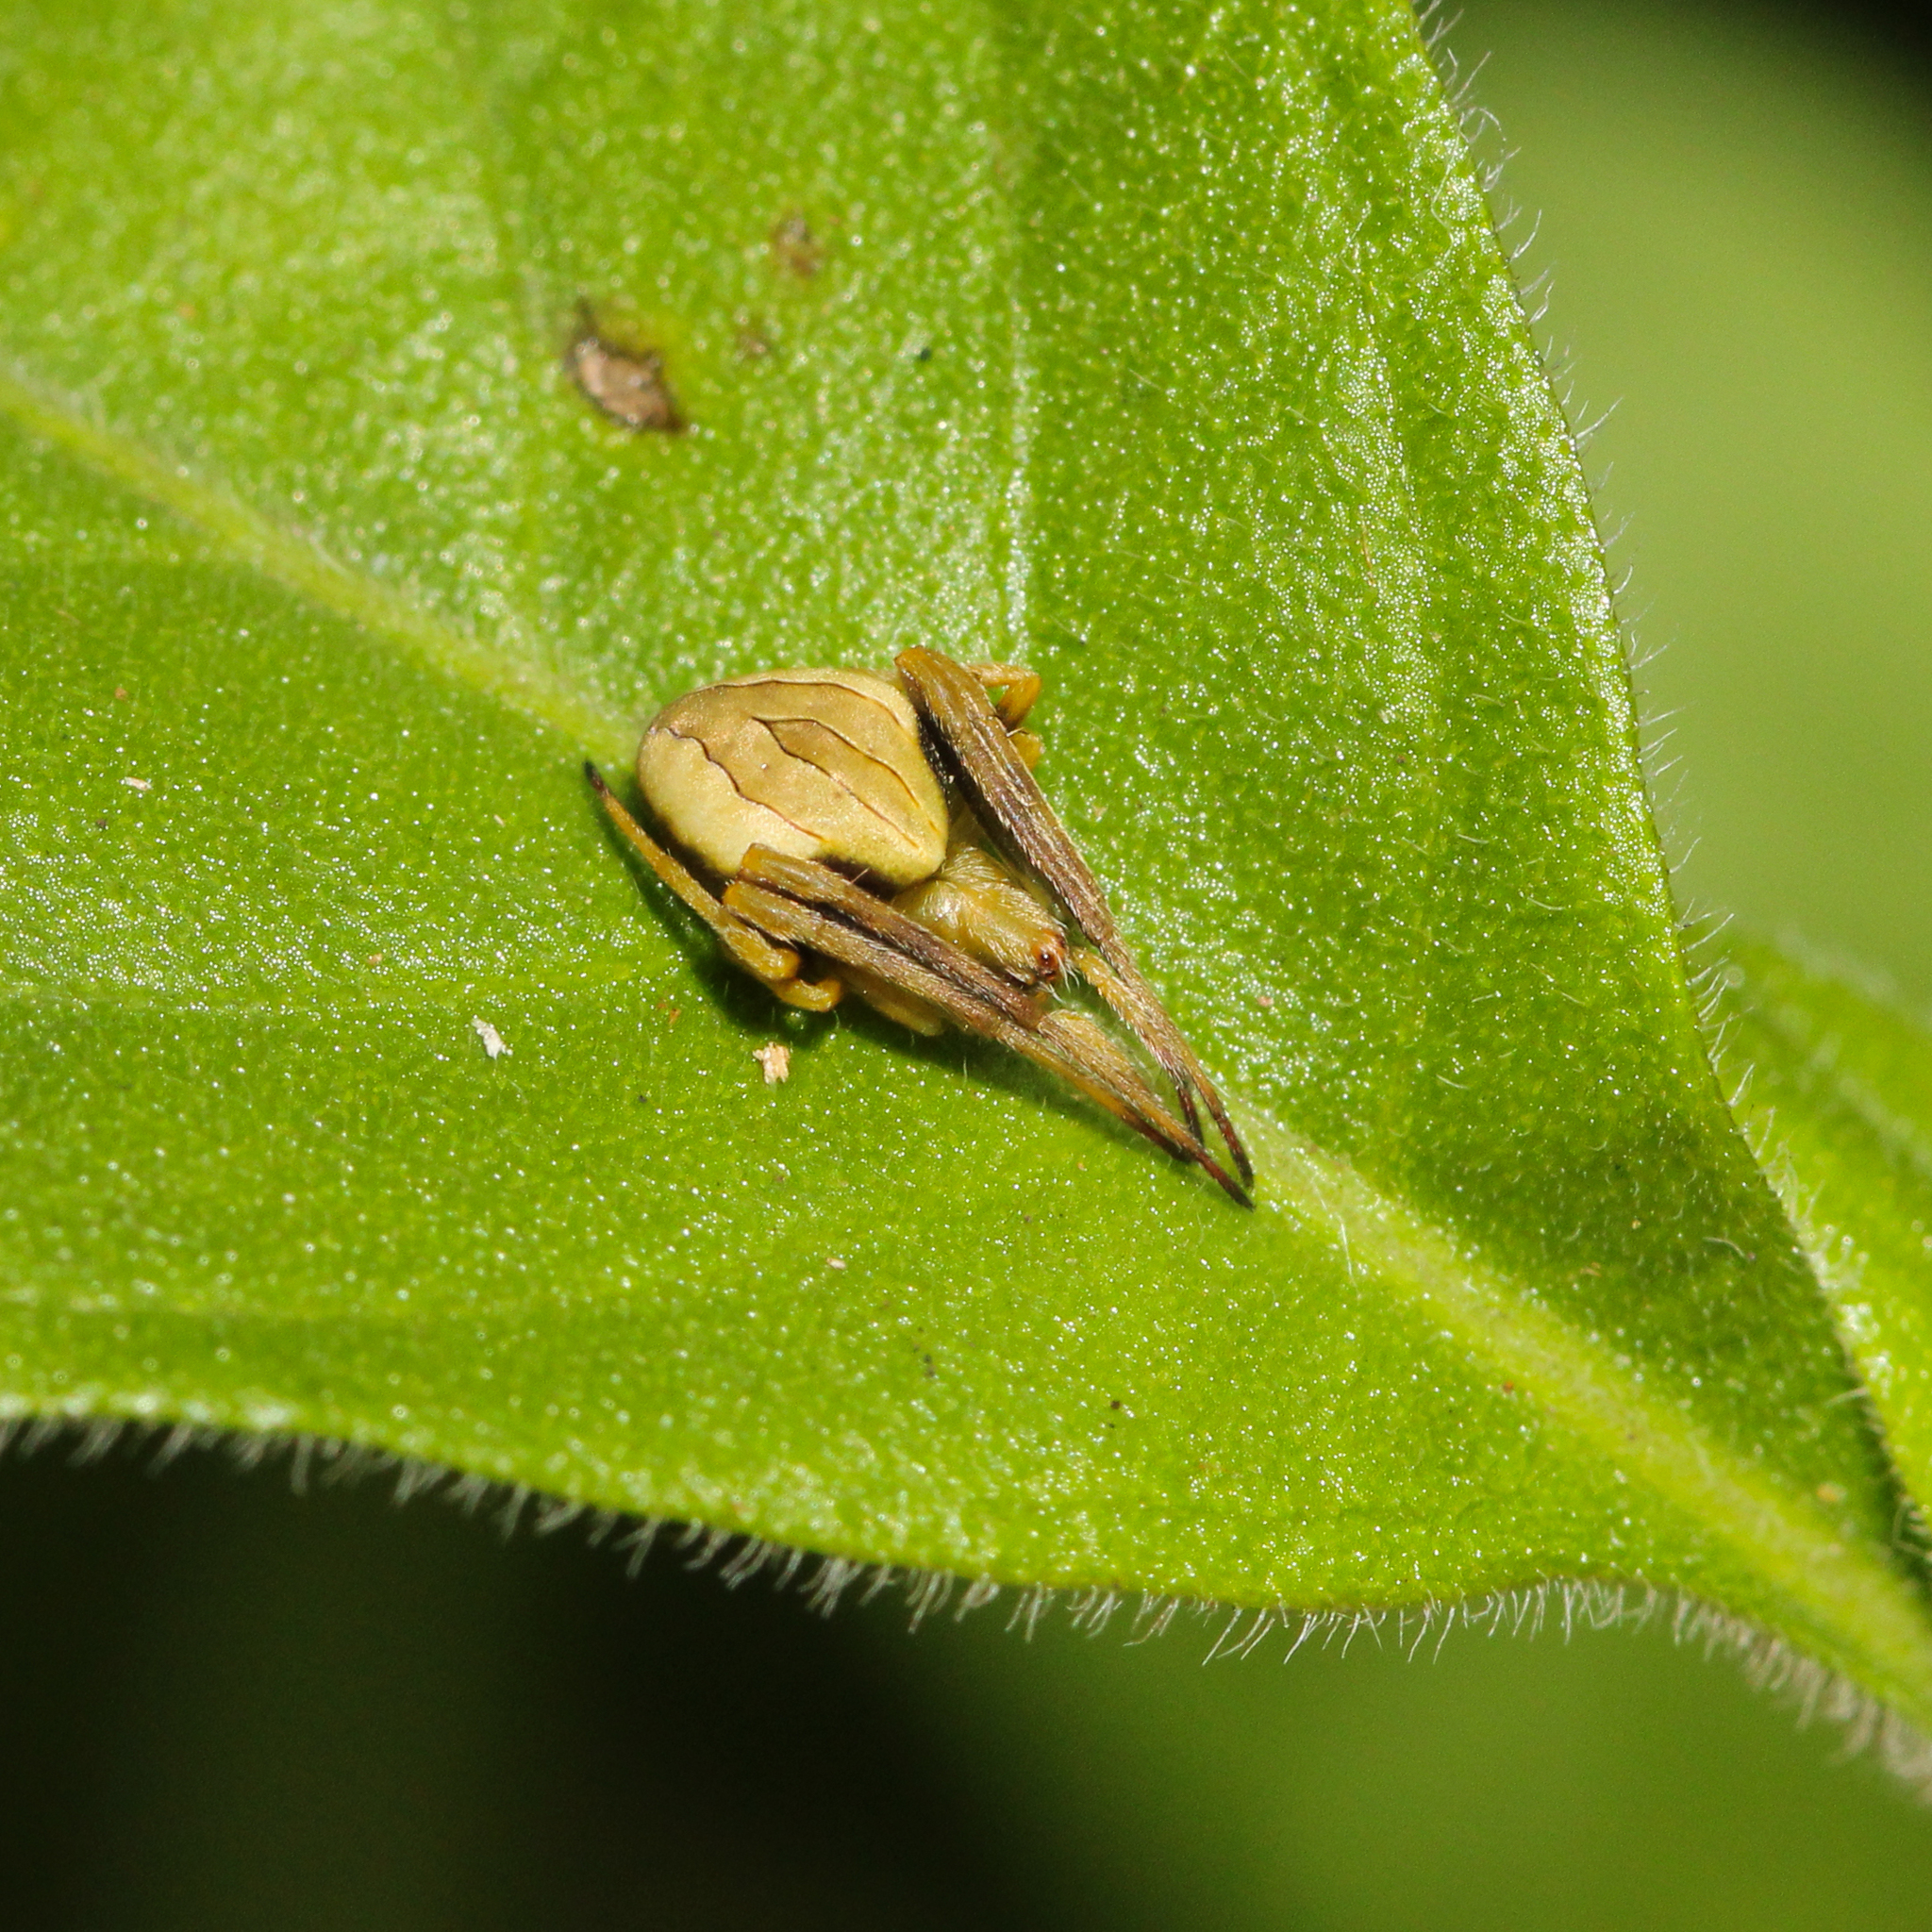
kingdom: Animalia
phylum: Arthropoda
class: Arachnida
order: Araneae
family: Araneidae
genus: Acacesia
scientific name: Acacesia hamata
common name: Orb weavers
